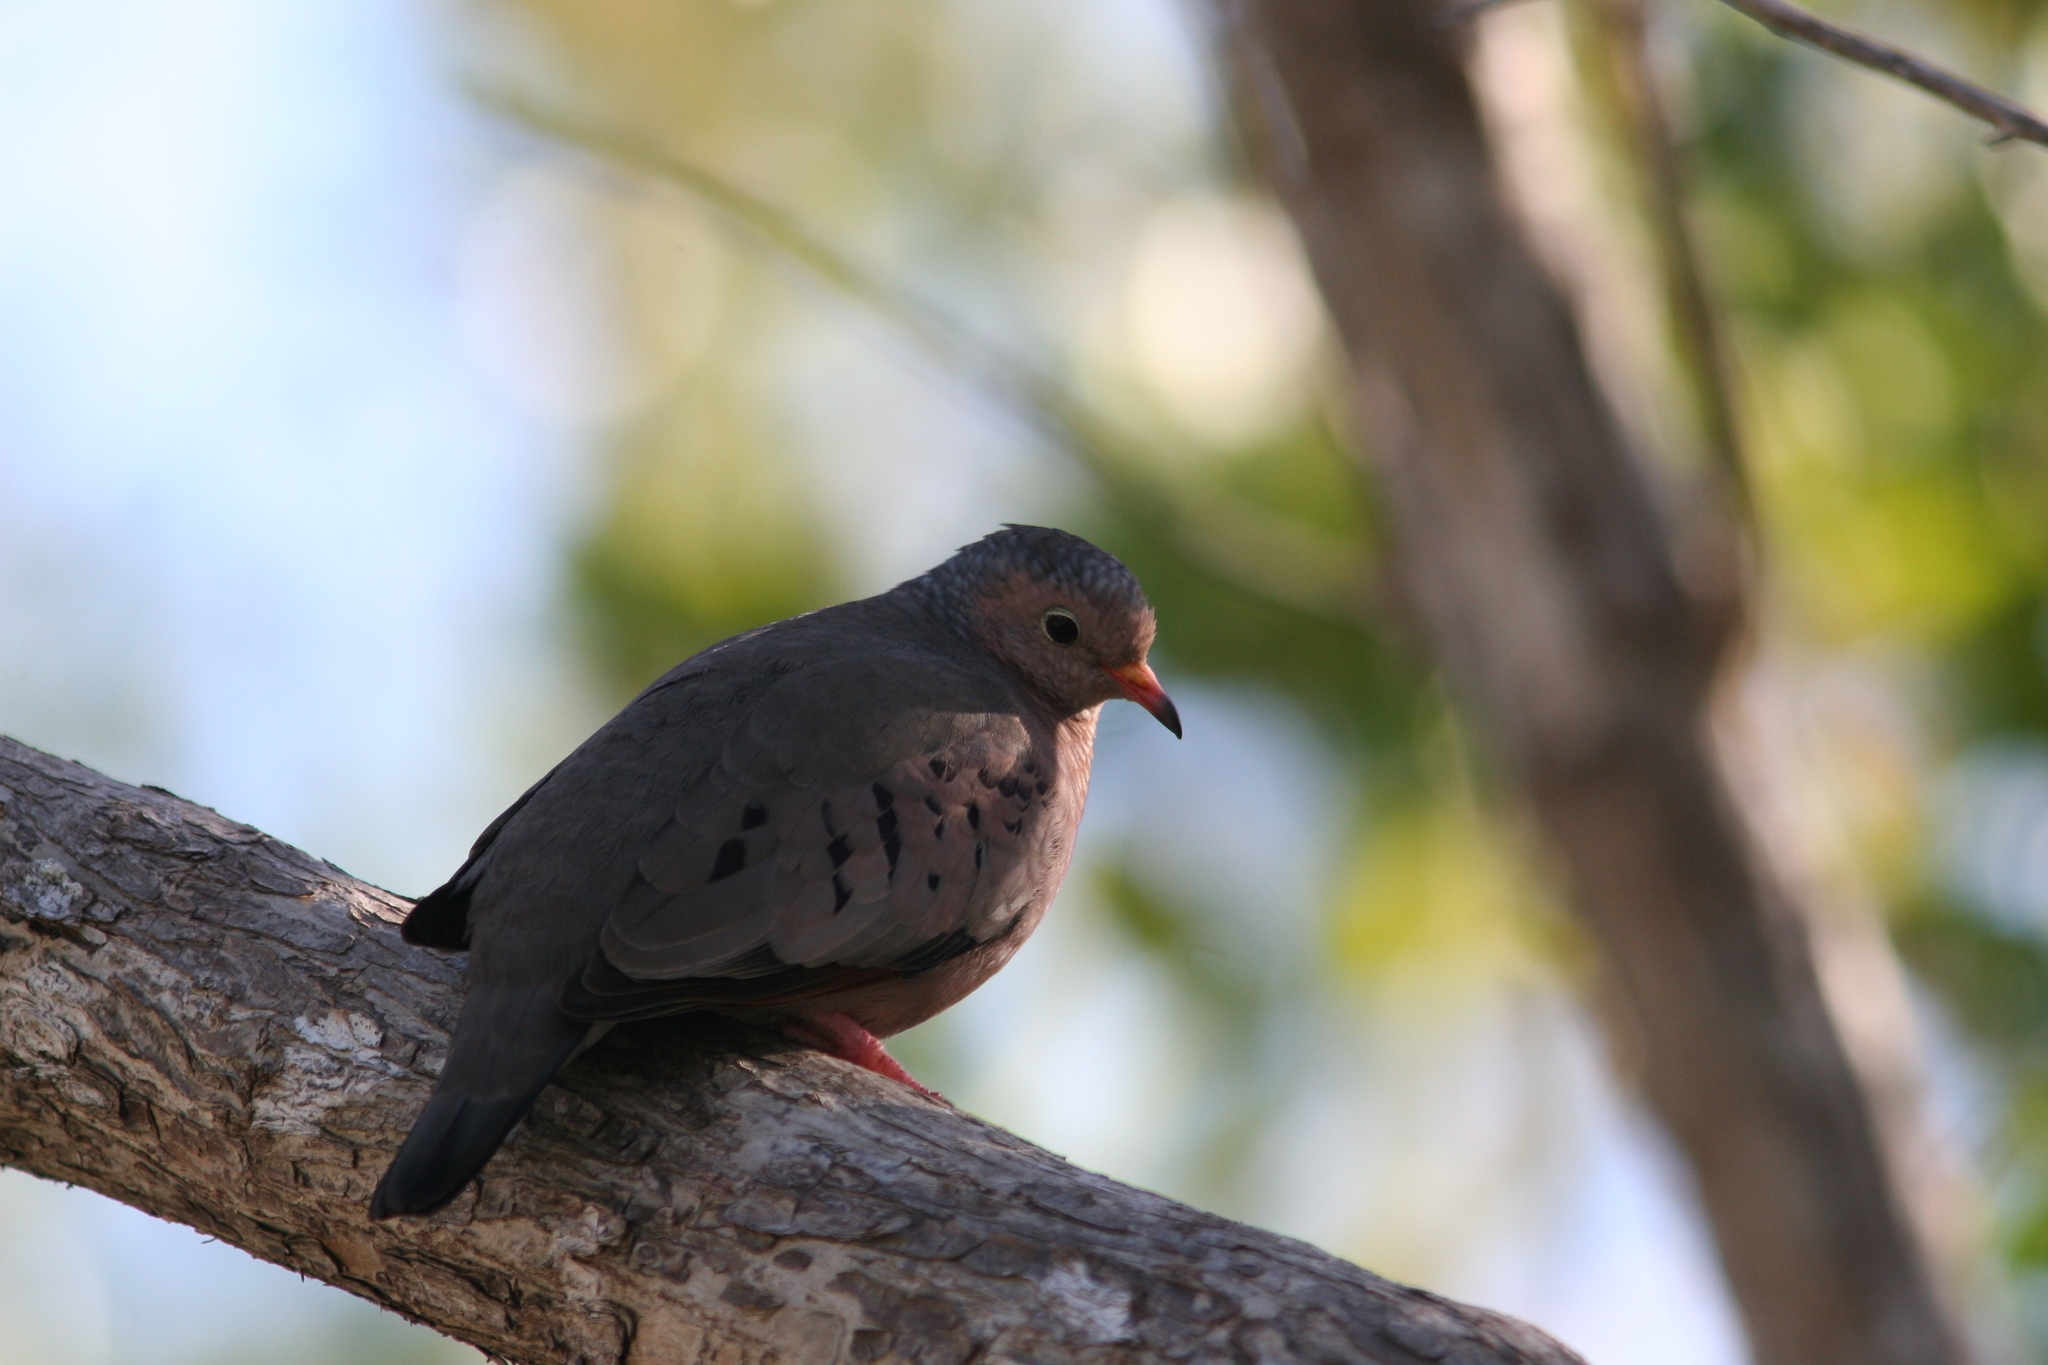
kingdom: Animalia
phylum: Chordata
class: Aves
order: Columbiformes
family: Columbidae
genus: Columbina
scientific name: Columbina passerina
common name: Common ground-dove
